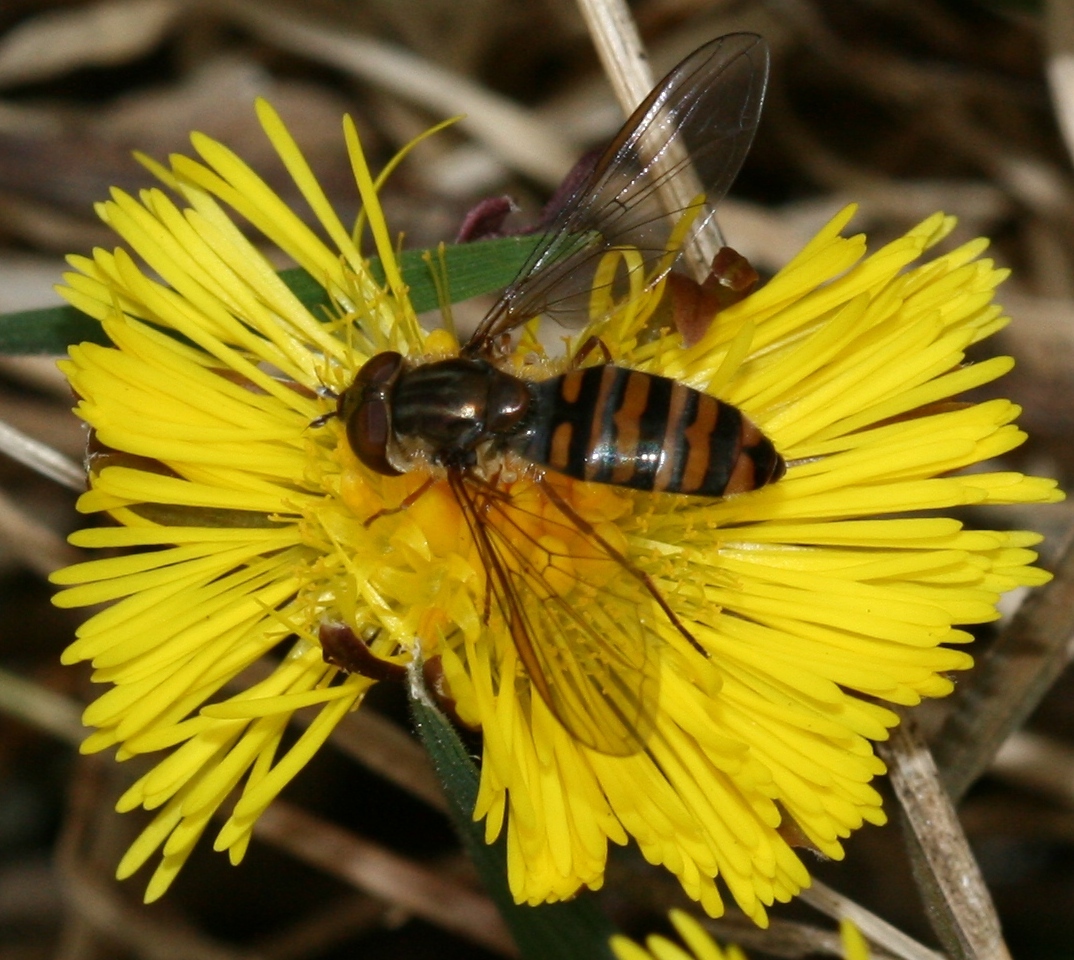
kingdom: Animalia
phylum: Arthropoda
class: Insecta
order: Diptera
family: Syrphidae
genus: Episyrphus
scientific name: Episyrphus balteatus
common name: Marmalade hoverfly
